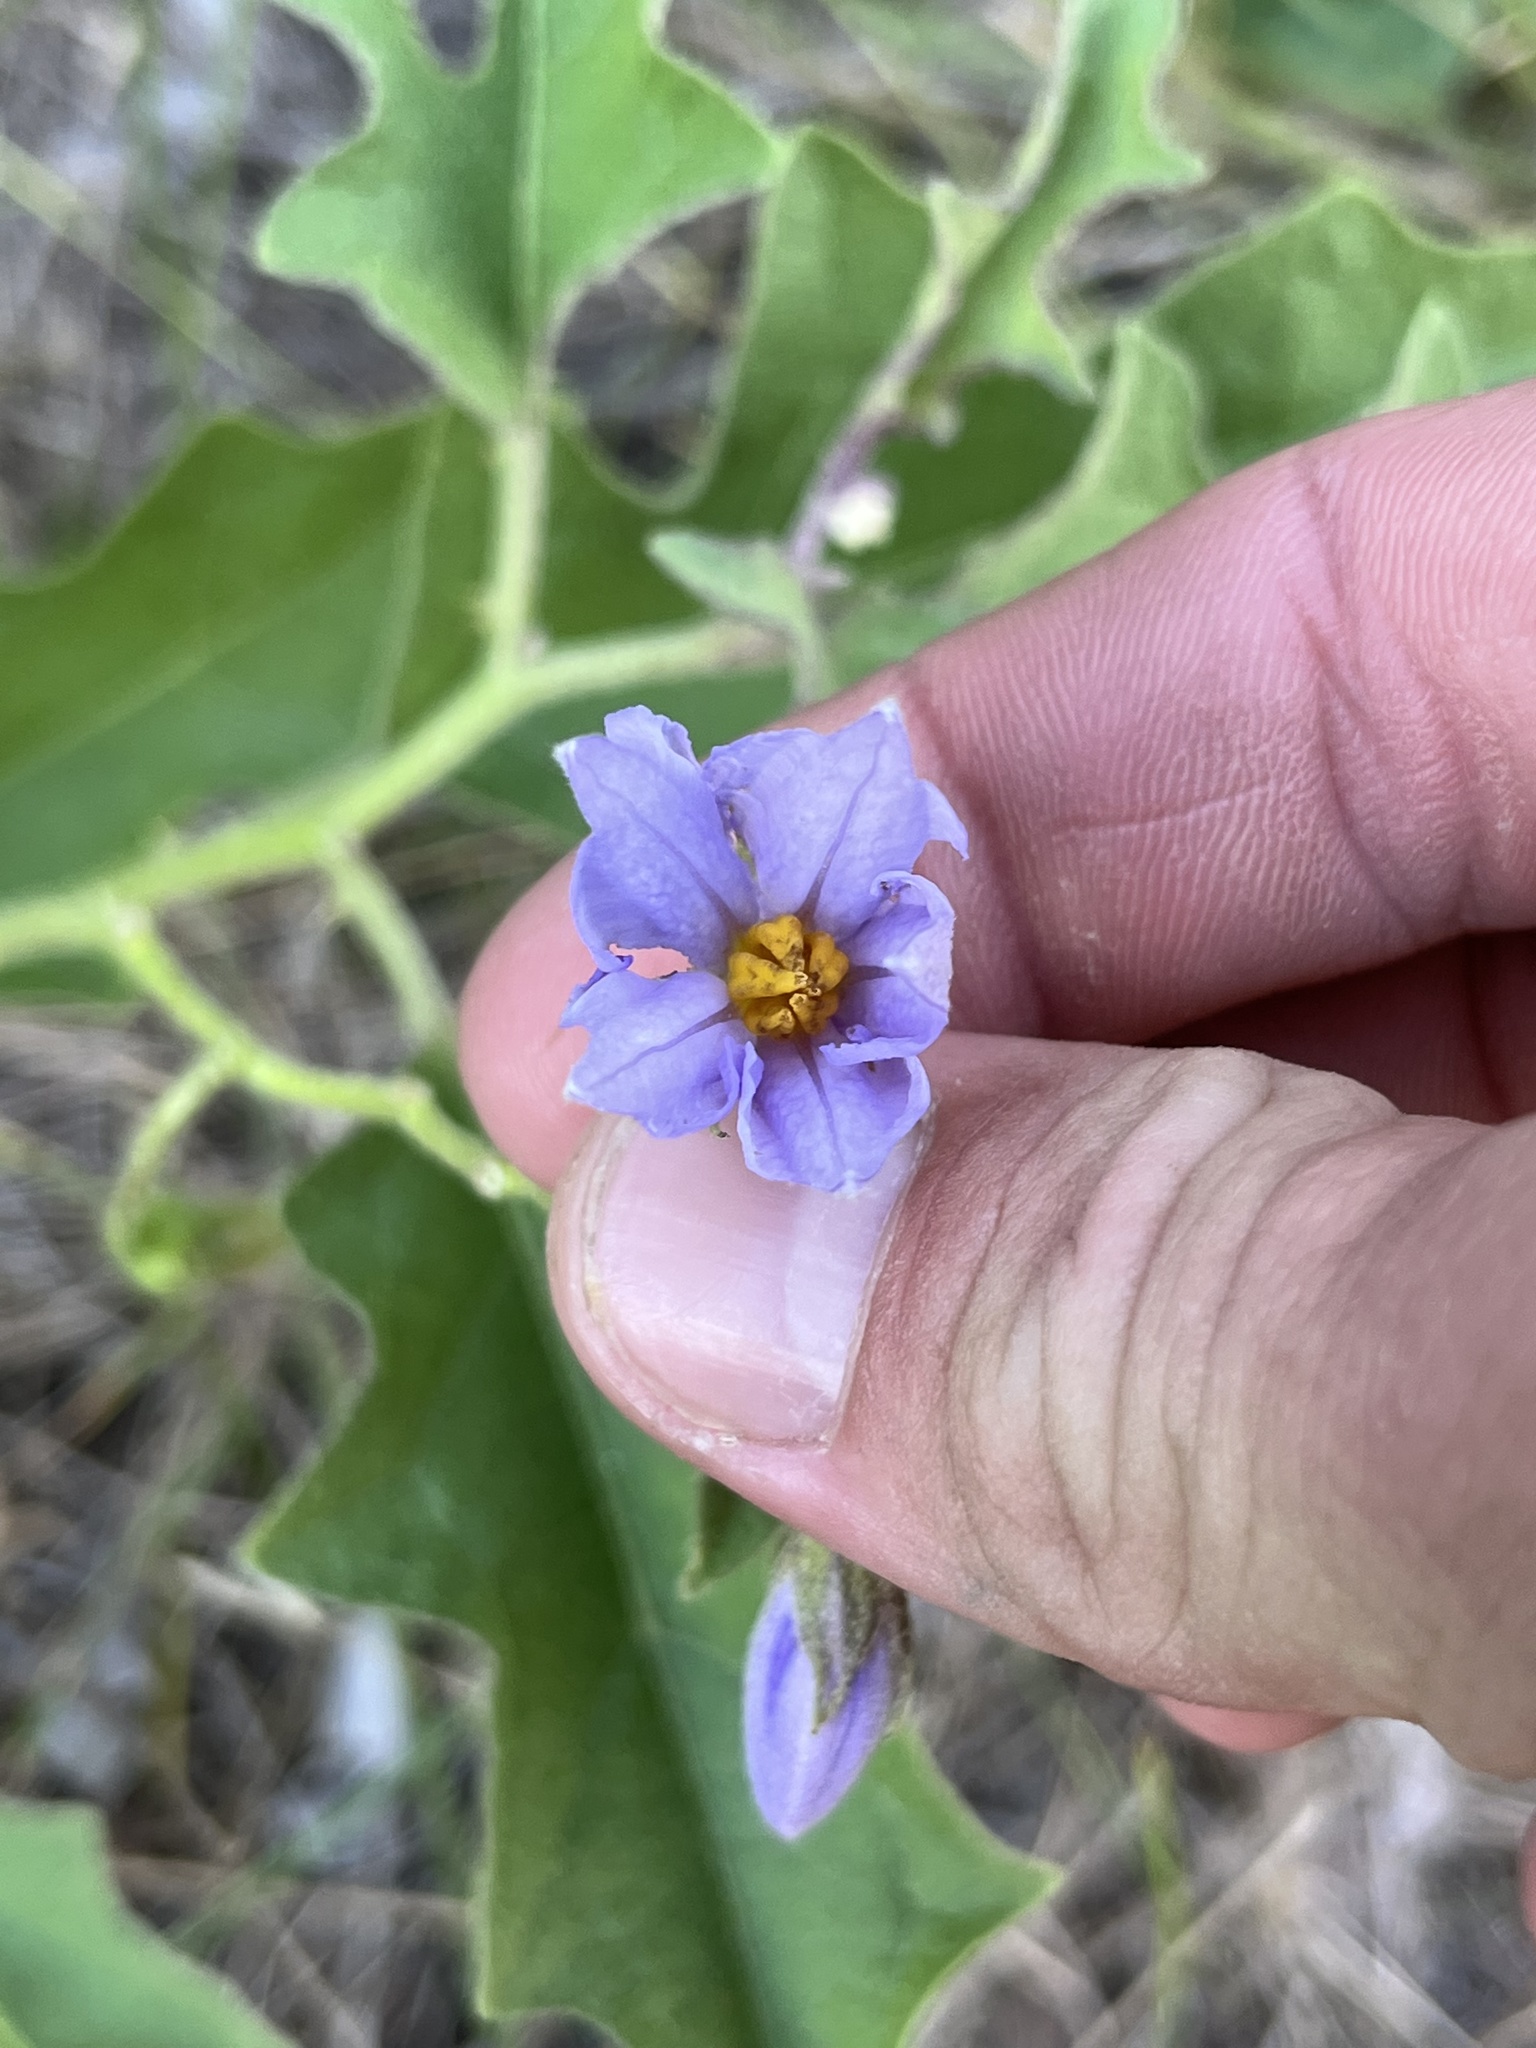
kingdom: Plantae
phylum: Tracheophyta
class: Magnoliopsida
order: Solanales
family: Solanaceae
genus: Solanum
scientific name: Solanum dimidiatum
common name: Carolina horse-nettle
